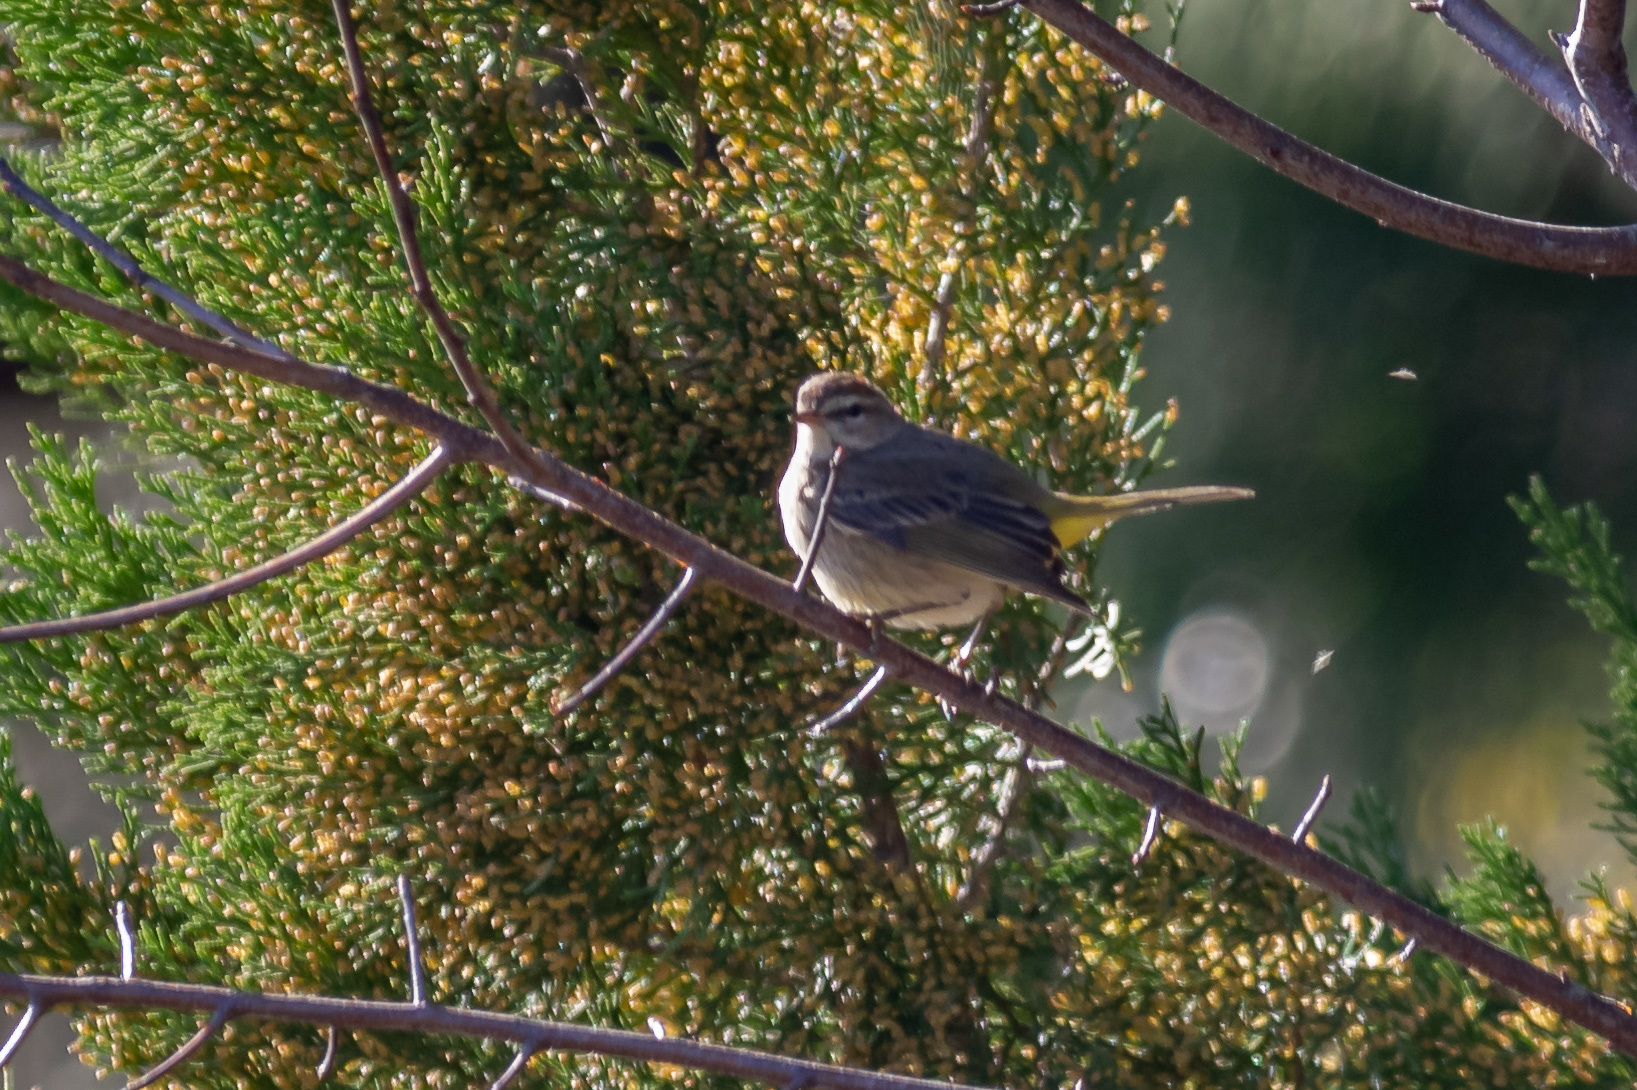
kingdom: Animalia
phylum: Chordata
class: Aves
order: Passeriformes
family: Parulidae
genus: Setophaga
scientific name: Setophaga palmarum
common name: Palm warbler
